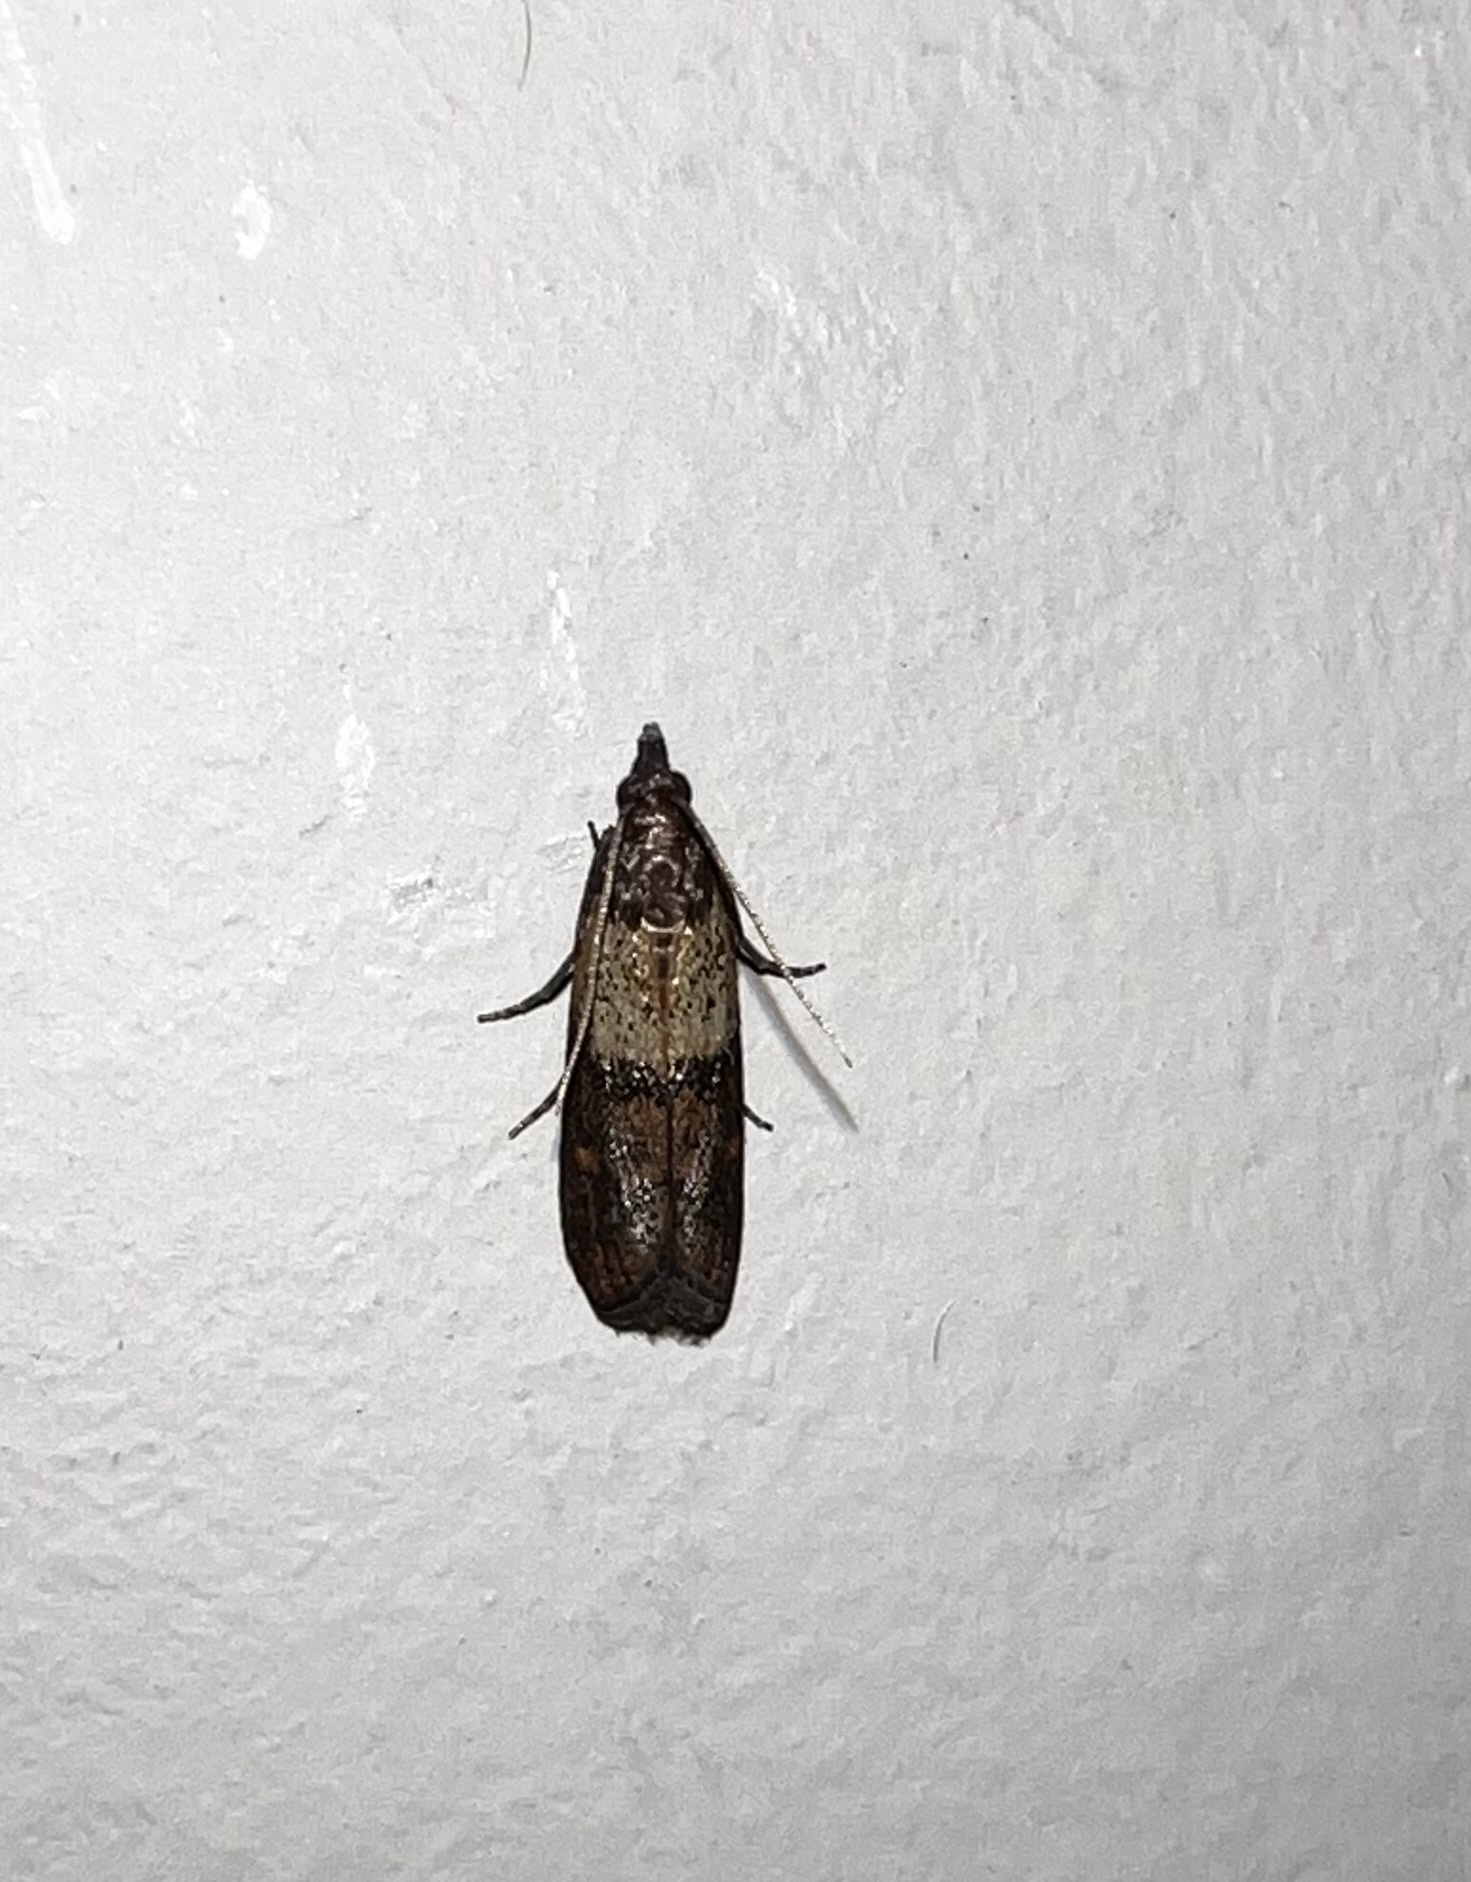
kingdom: Animalia
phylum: Arthropoda
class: Insecta
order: Lepidoptera
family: Pyralidae
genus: Plodia
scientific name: Plodia interpunctella
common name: Indian meal moth
